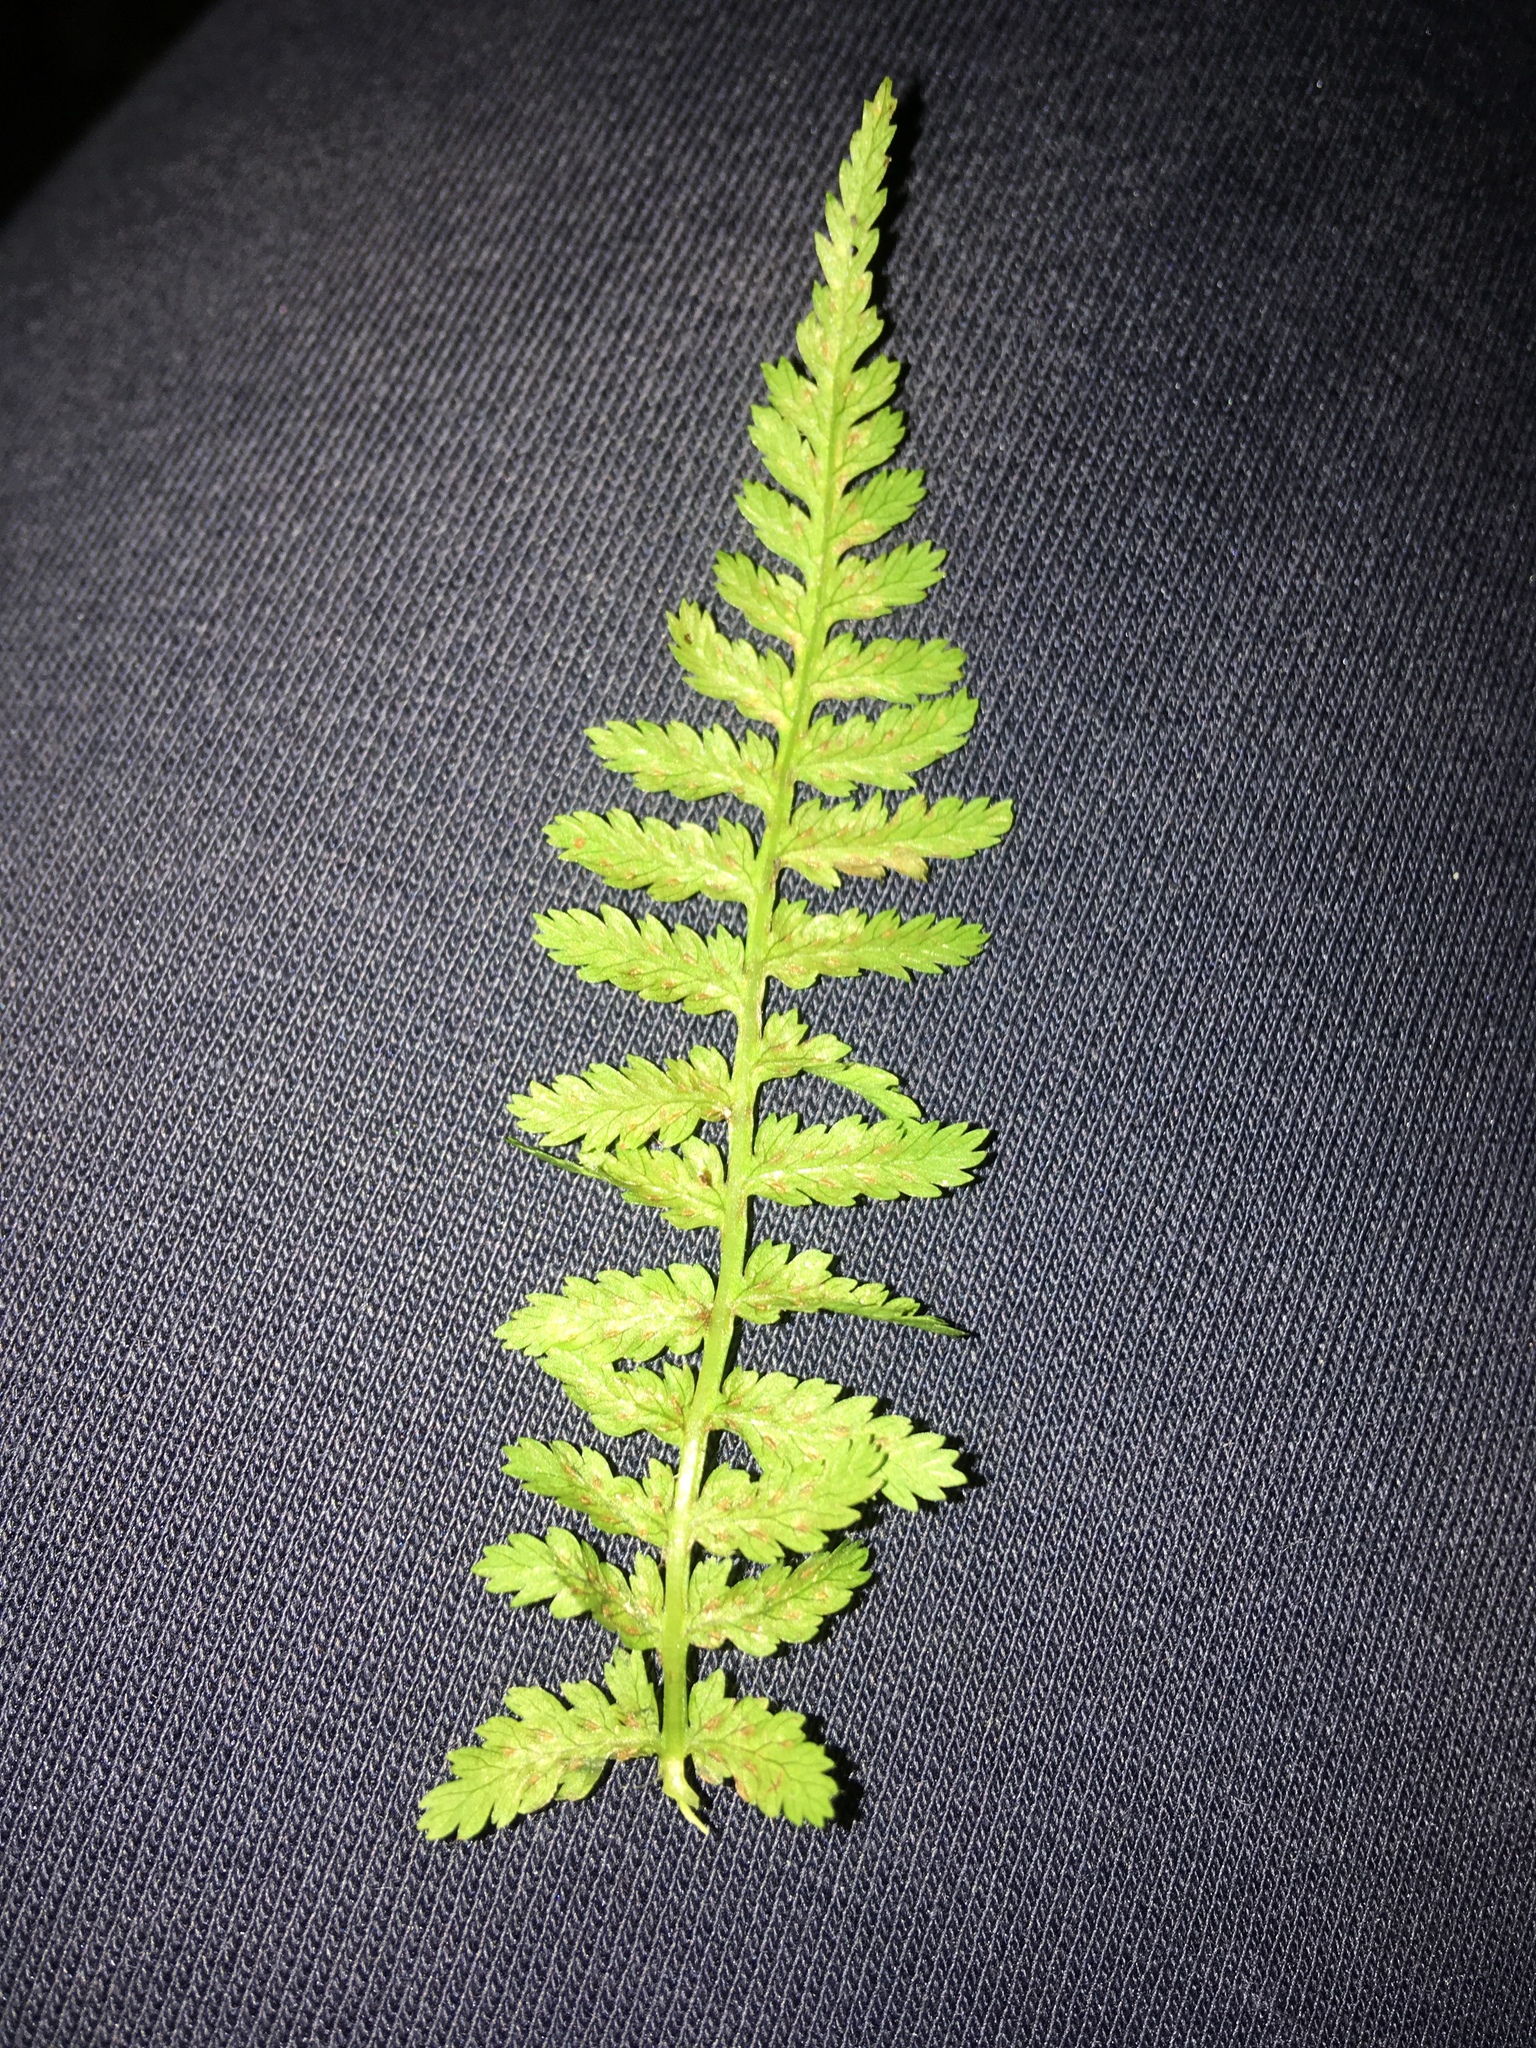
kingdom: Plantae
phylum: Tracheophyta
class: Polypodiopsida
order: Polypodiales
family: Athyriaceae
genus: Athyrium
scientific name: Athyrium filix-femina
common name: Lady fern
